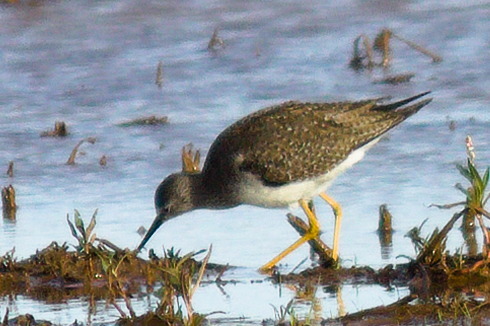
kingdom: Animalia
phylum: Chordata
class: Aves
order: Charadriiformes
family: Scolopacidae
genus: Tringa
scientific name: Tringa flavipes
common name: Lesser yellowlegs
